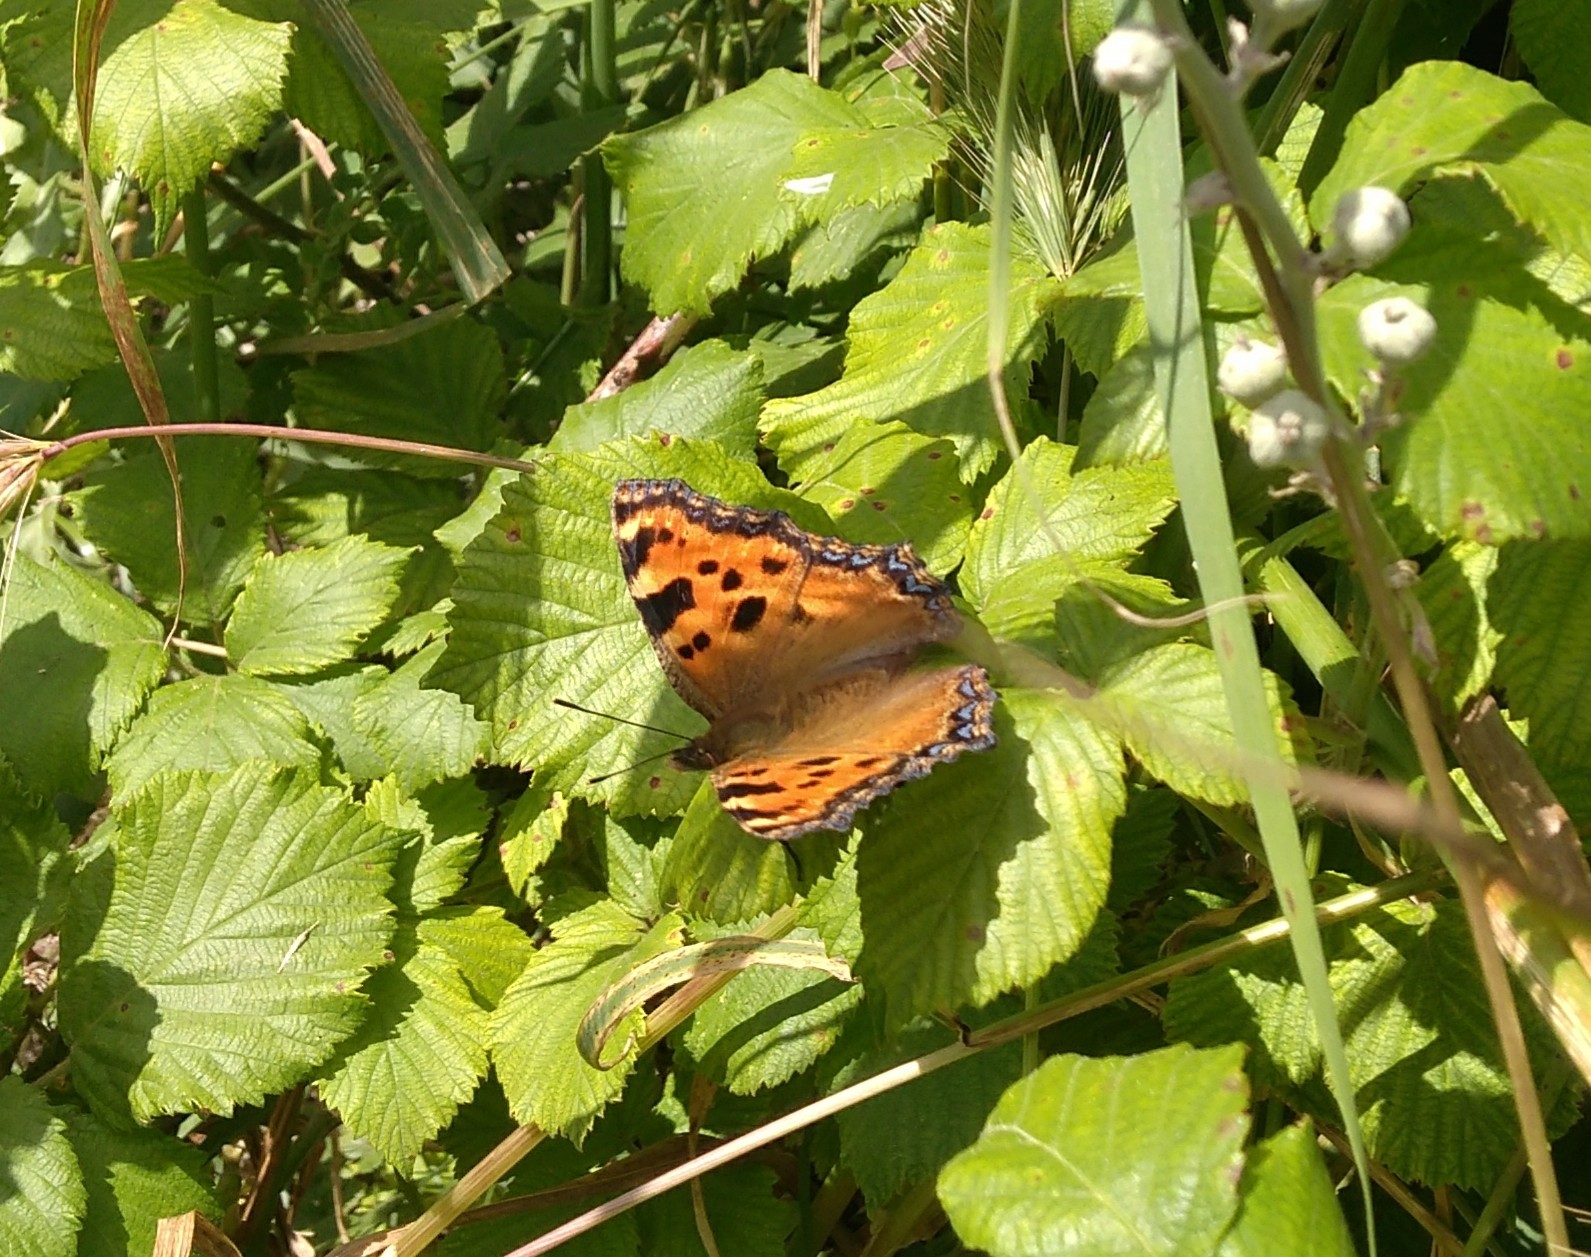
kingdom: Animalia
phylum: Arthropoda
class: Insecta
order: Lepidoptera
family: Nymphalidae
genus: Nymphalis
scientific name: Nymphalis polychloros
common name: Large tortoiseshell
